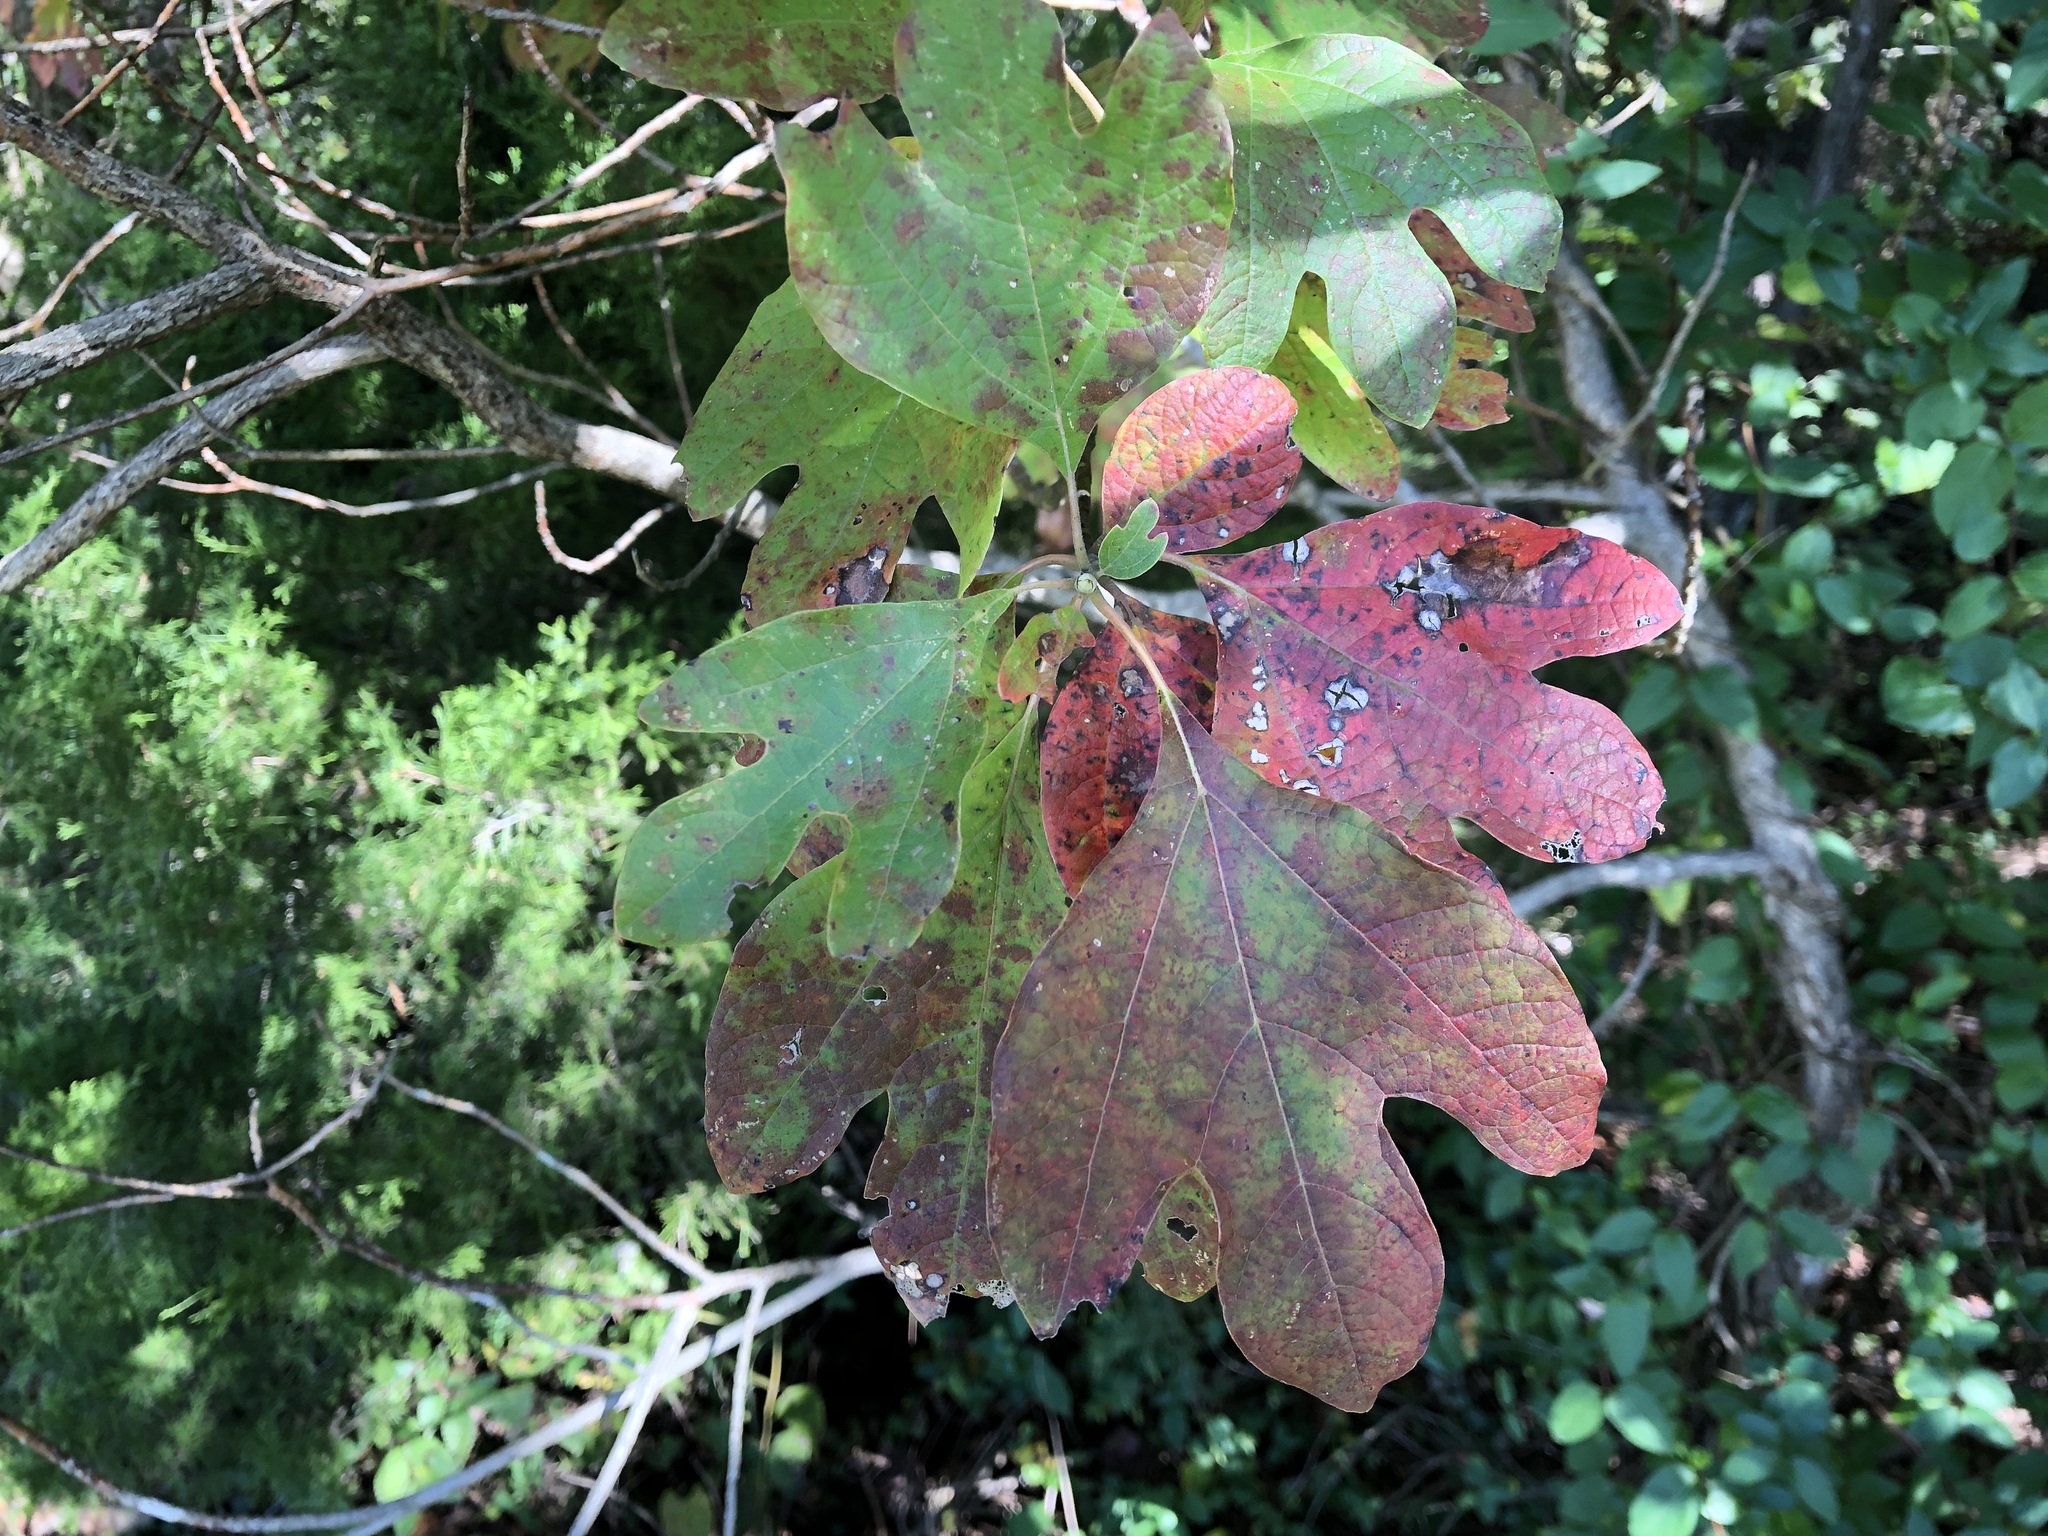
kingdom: Plantae
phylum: Tracheophyta
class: Magnoliopsida
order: Laurales
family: Lauraceae
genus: Sassafras
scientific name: Sassafras albidum
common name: Sassafras
